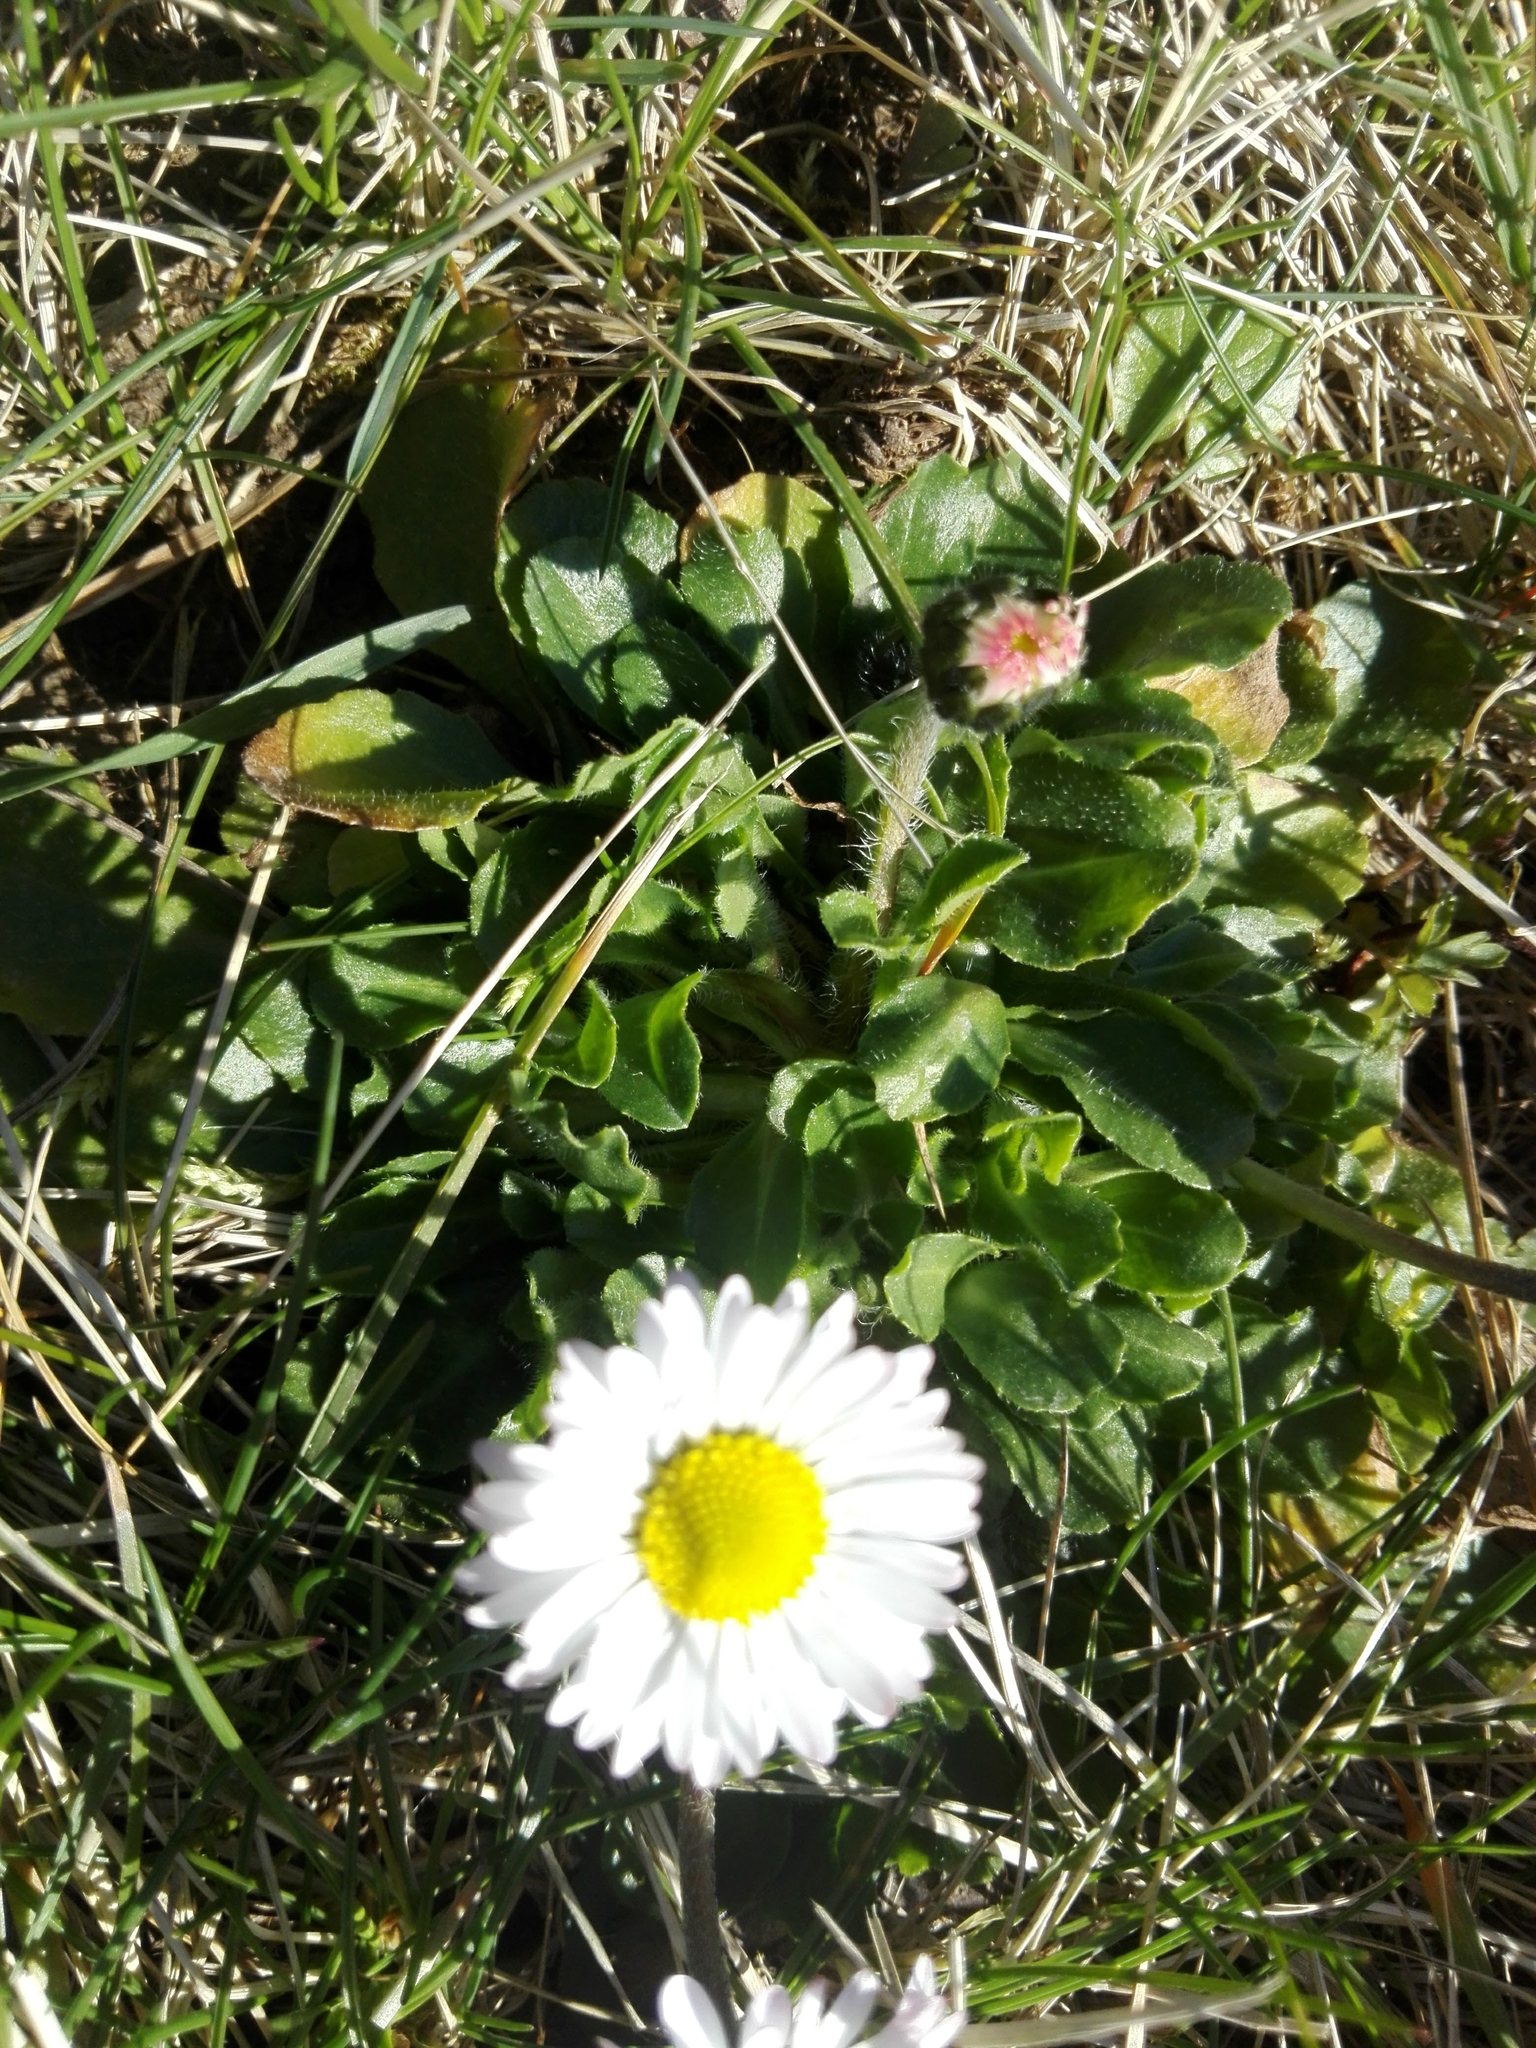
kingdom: Plantae
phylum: Tracheophyta
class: Magnoliopsida
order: Asterales
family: Asteraceae
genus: Bellis
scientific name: Bellis perennis
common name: Lawndaisy
